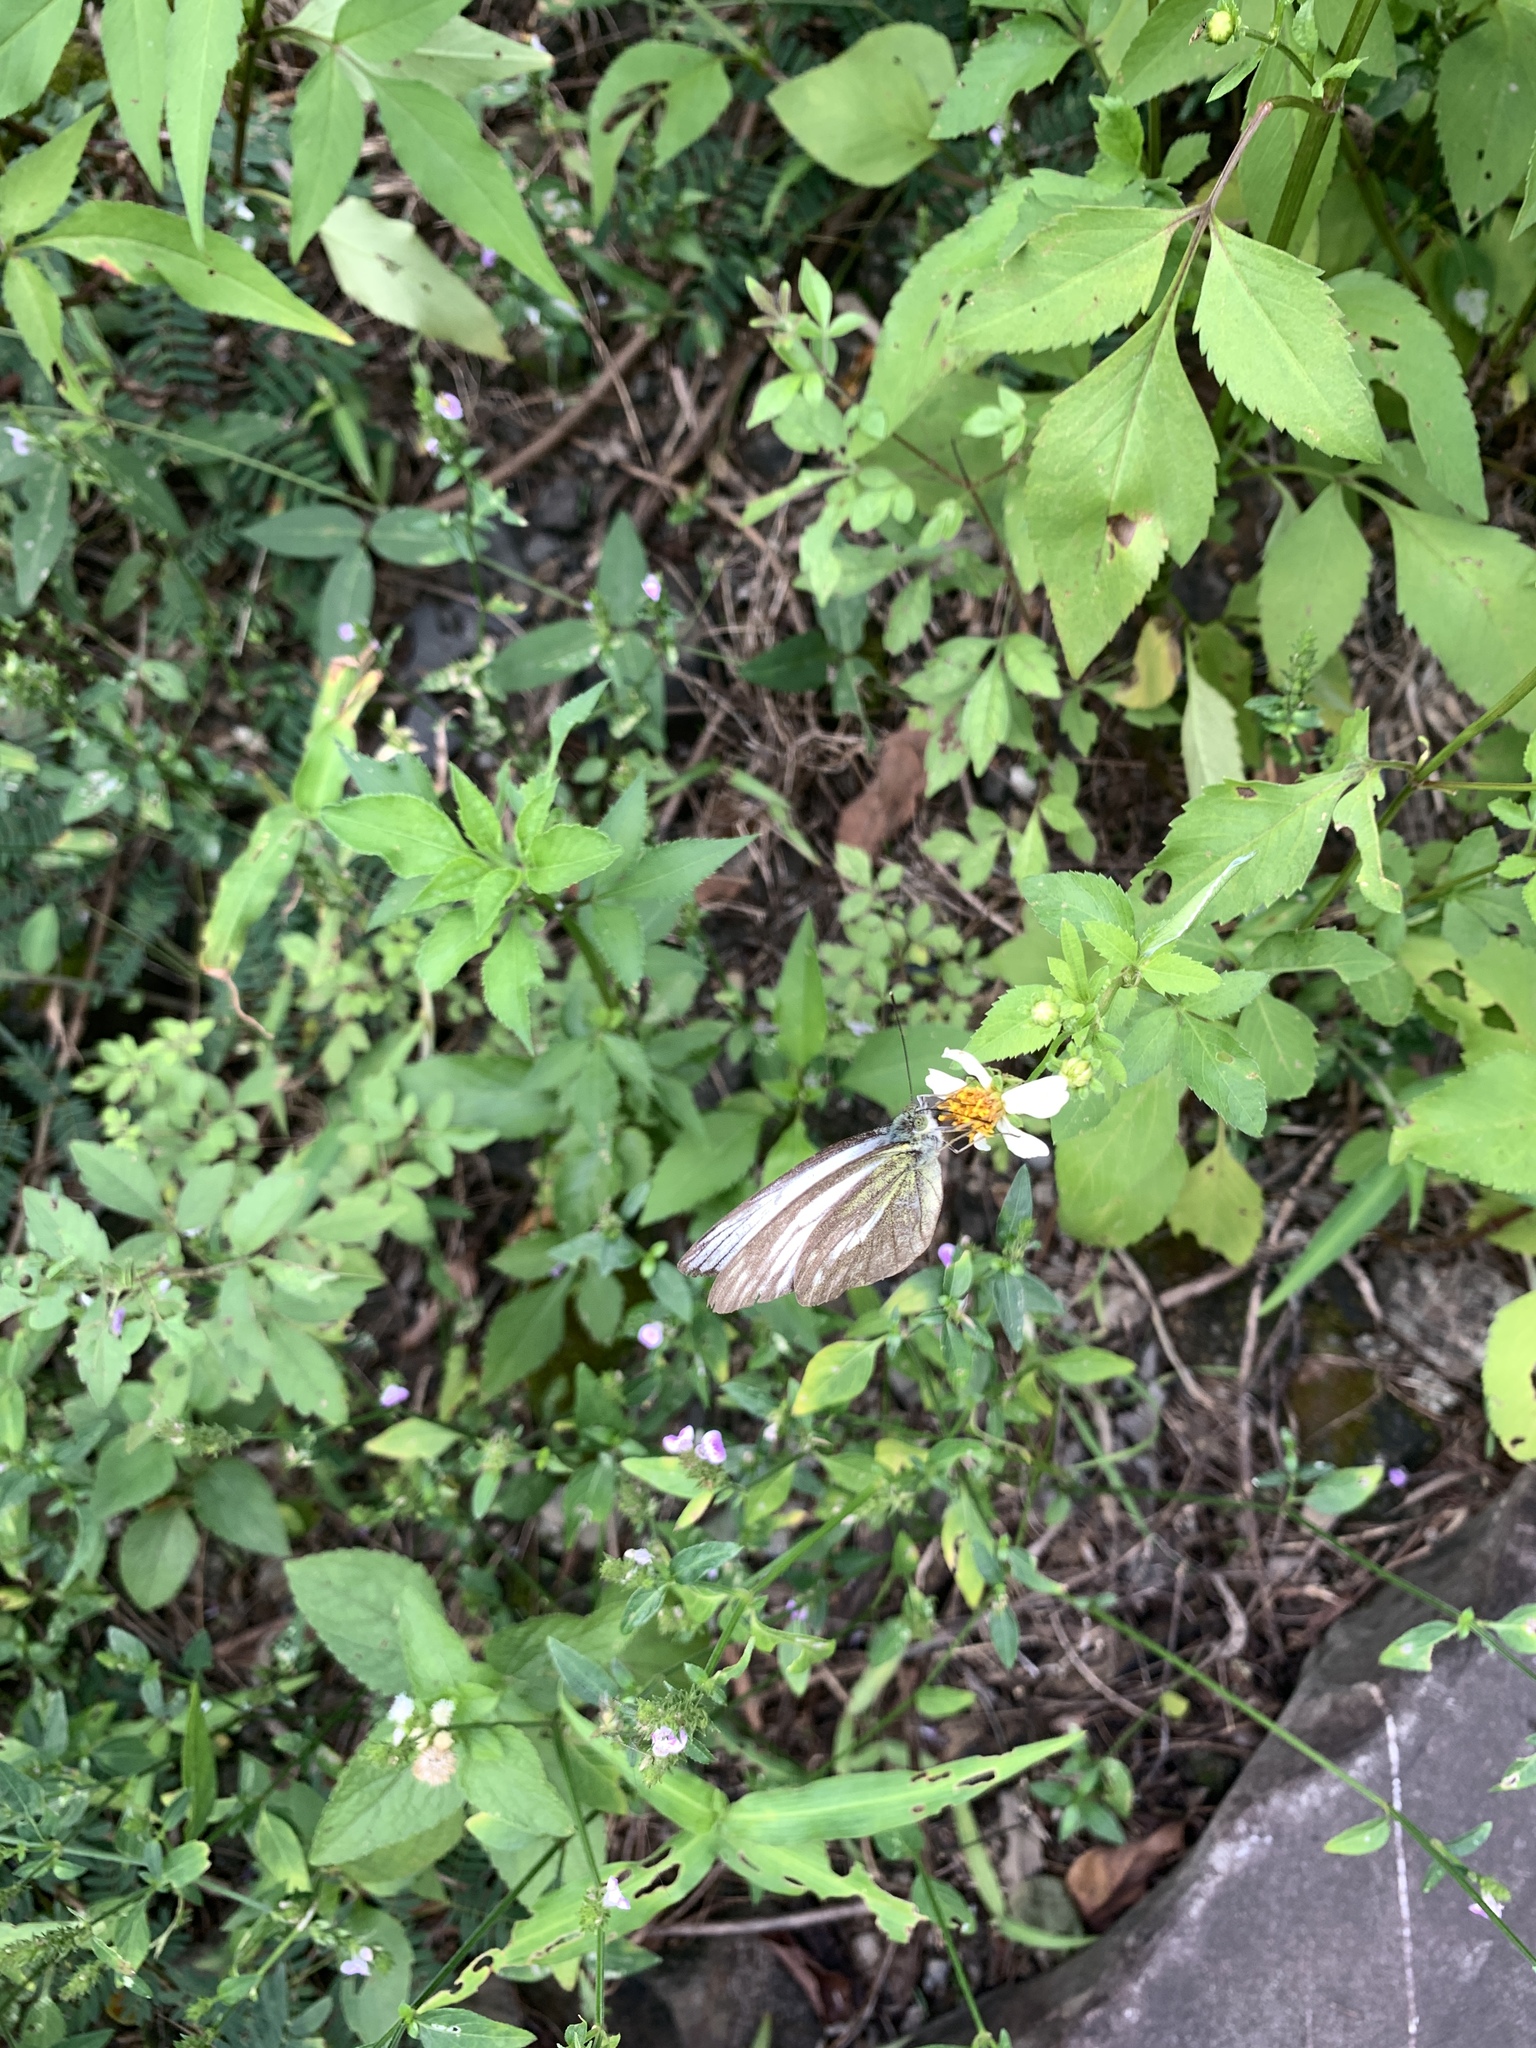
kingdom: Animalia
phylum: Arthropoda
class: Insecta
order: Lepidoptera
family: Pieridae
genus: Cepora
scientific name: Cepora nadina
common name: Lesser gull
